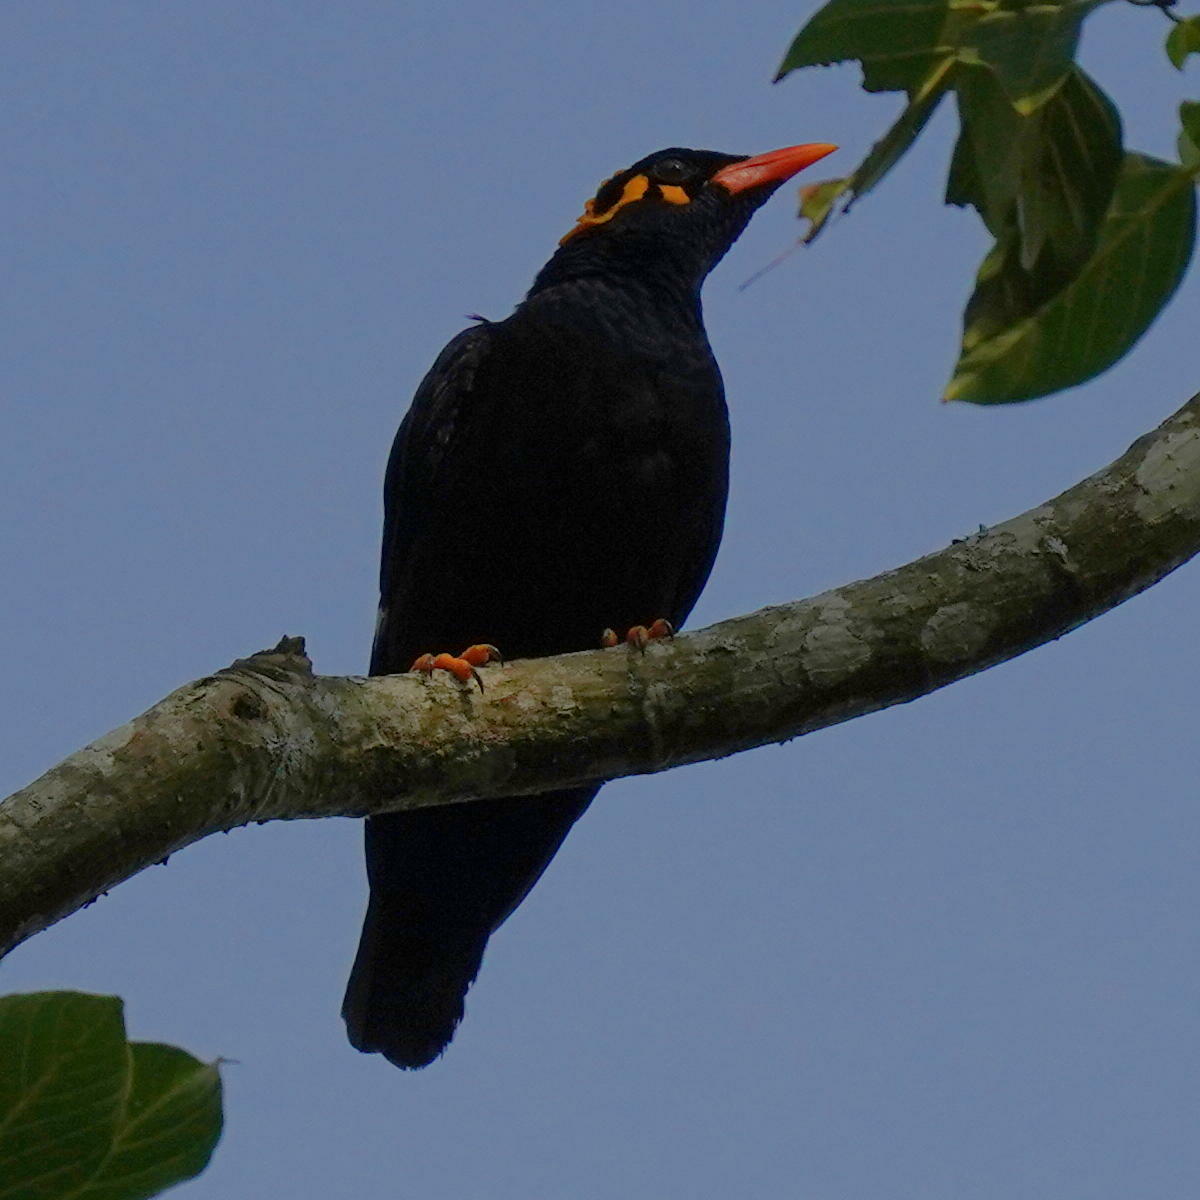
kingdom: Animalia
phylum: Chordata
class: Aves
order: Passeriformes
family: Sturnidae
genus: Gracula
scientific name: Gracula indica
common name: Southern hill myna
